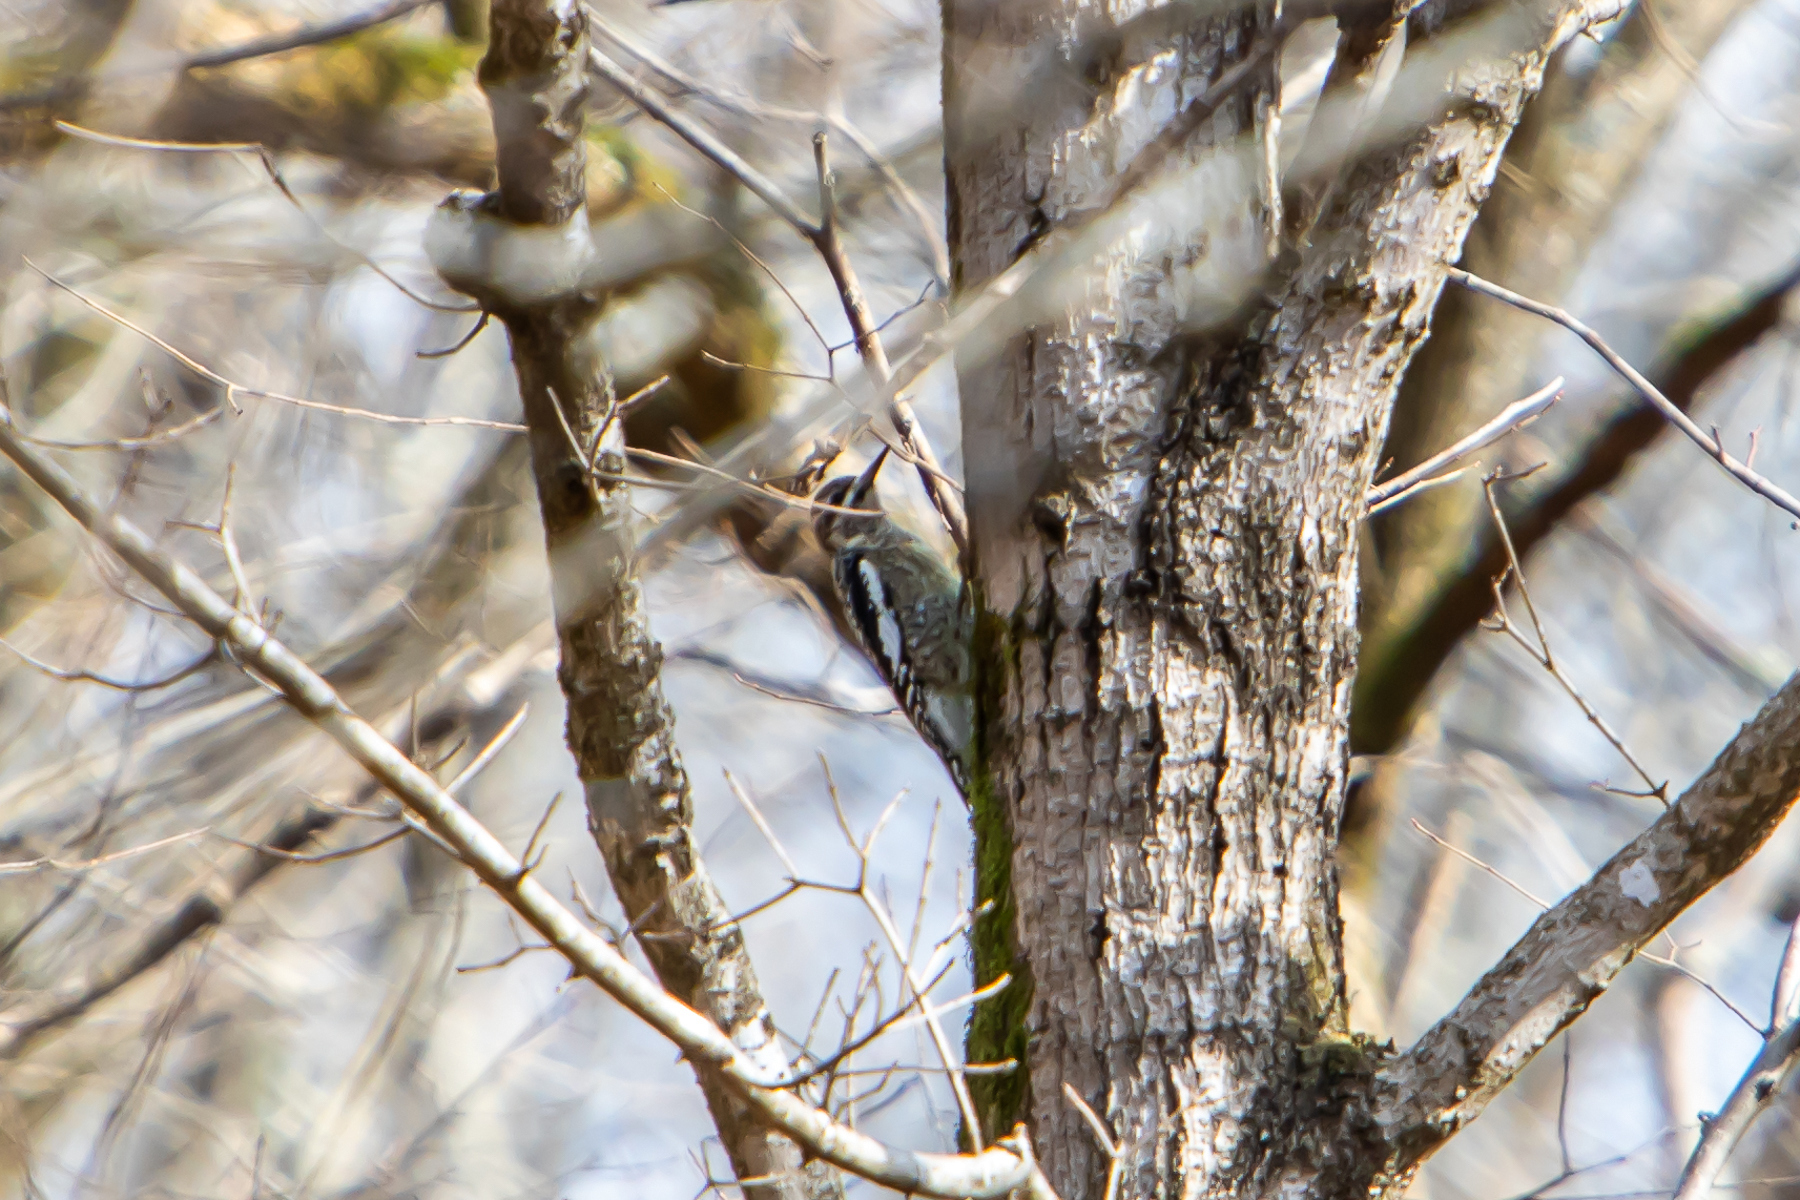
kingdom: Animalia
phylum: Chordata
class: Aves
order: Piciformes
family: Picidae
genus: Sphyrapicus
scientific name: Sphyrapicus varius
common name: Yellow-bellied sapsucker
